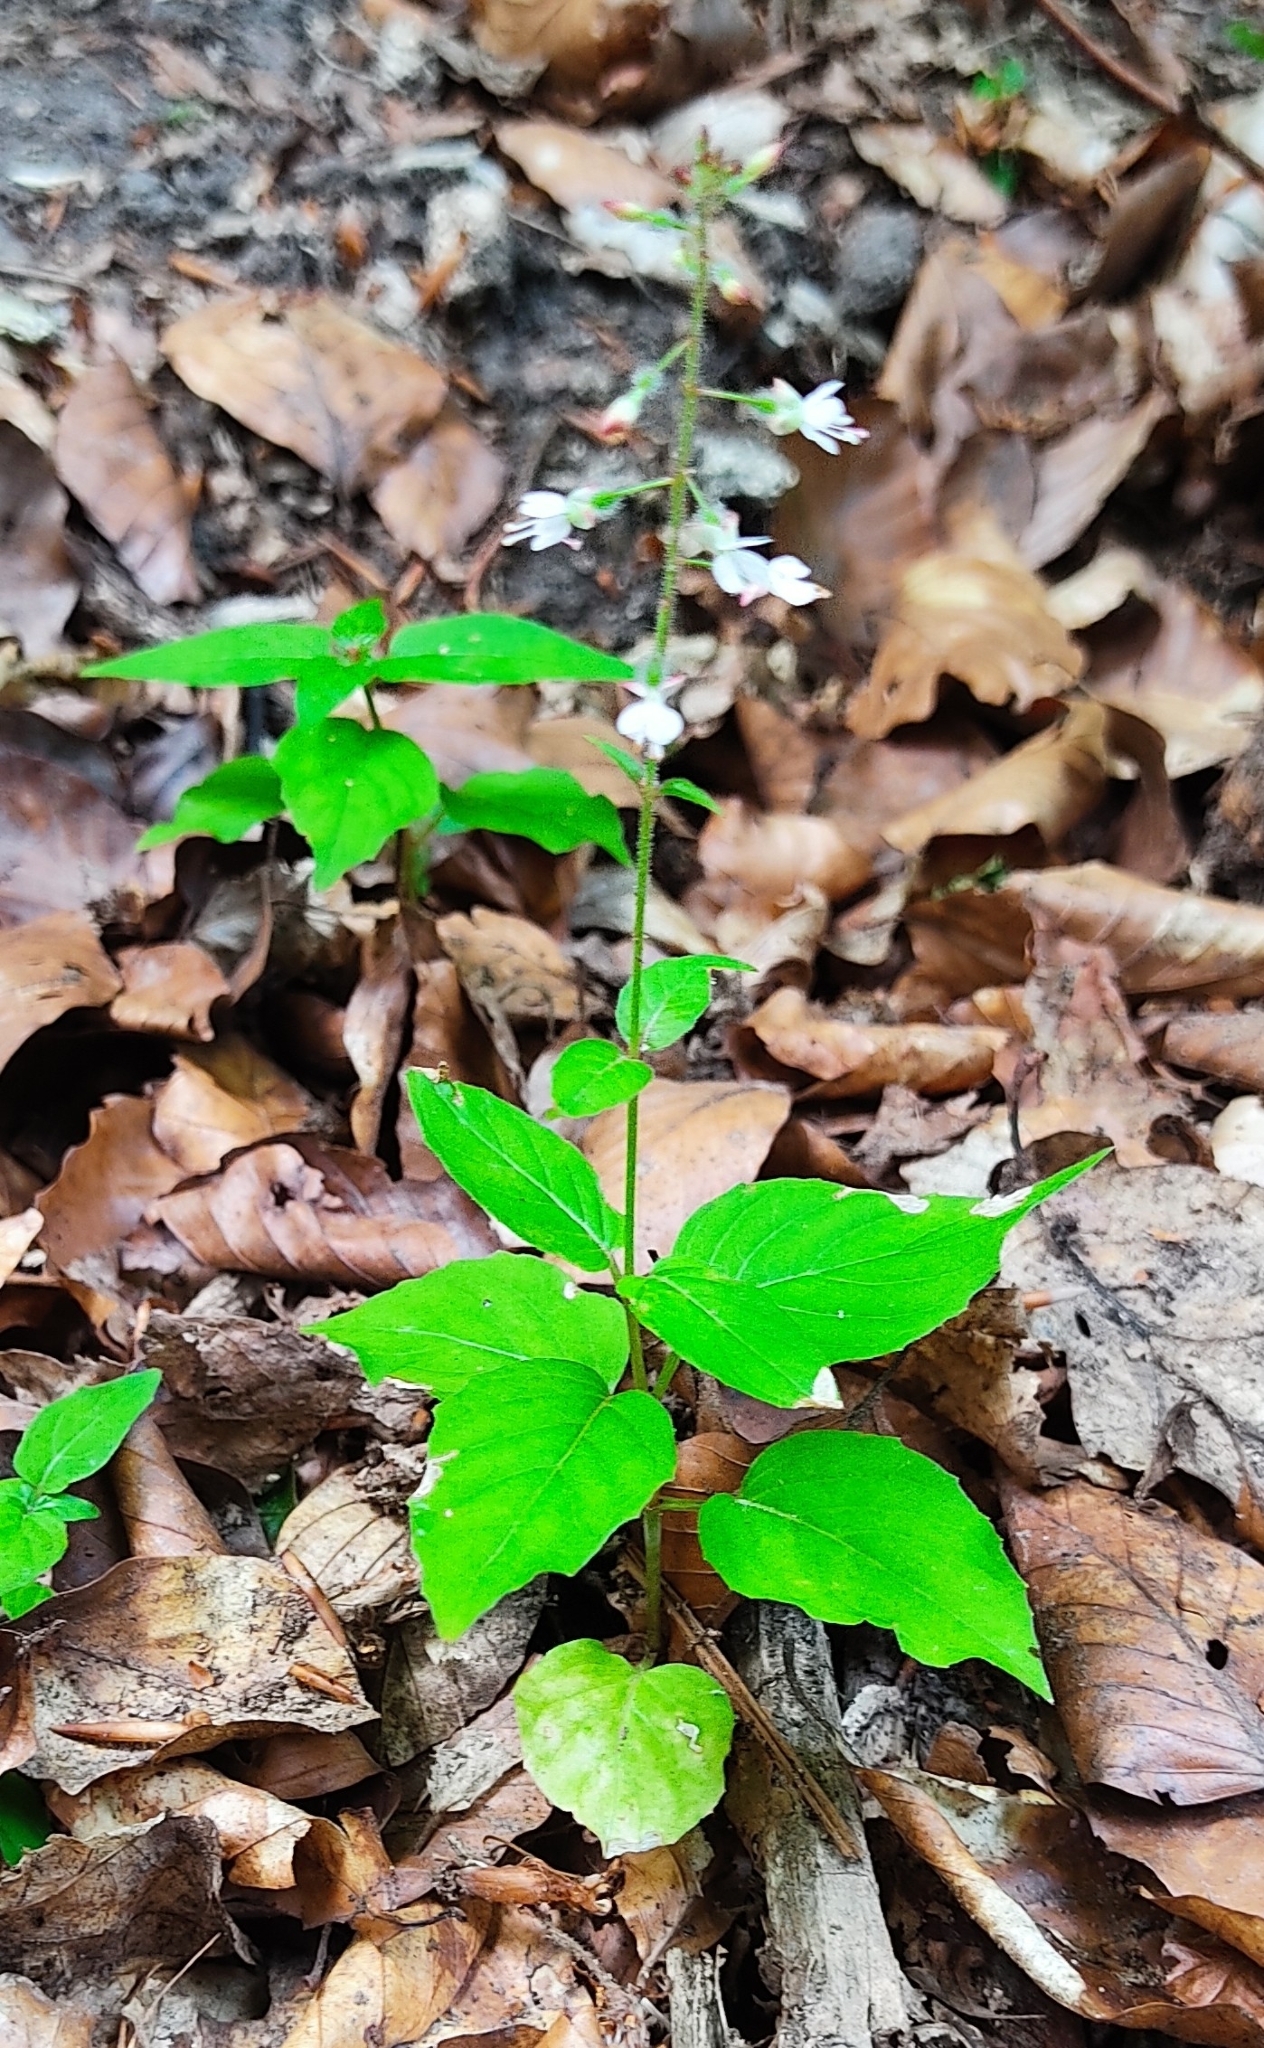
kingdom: Plantae
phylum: Tracheophyta
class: Magnoliopsida
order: Myrtales
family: Onagraceae
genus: Circaea
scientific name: Circaea lutetiana
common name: Enchanter's-nightshade
